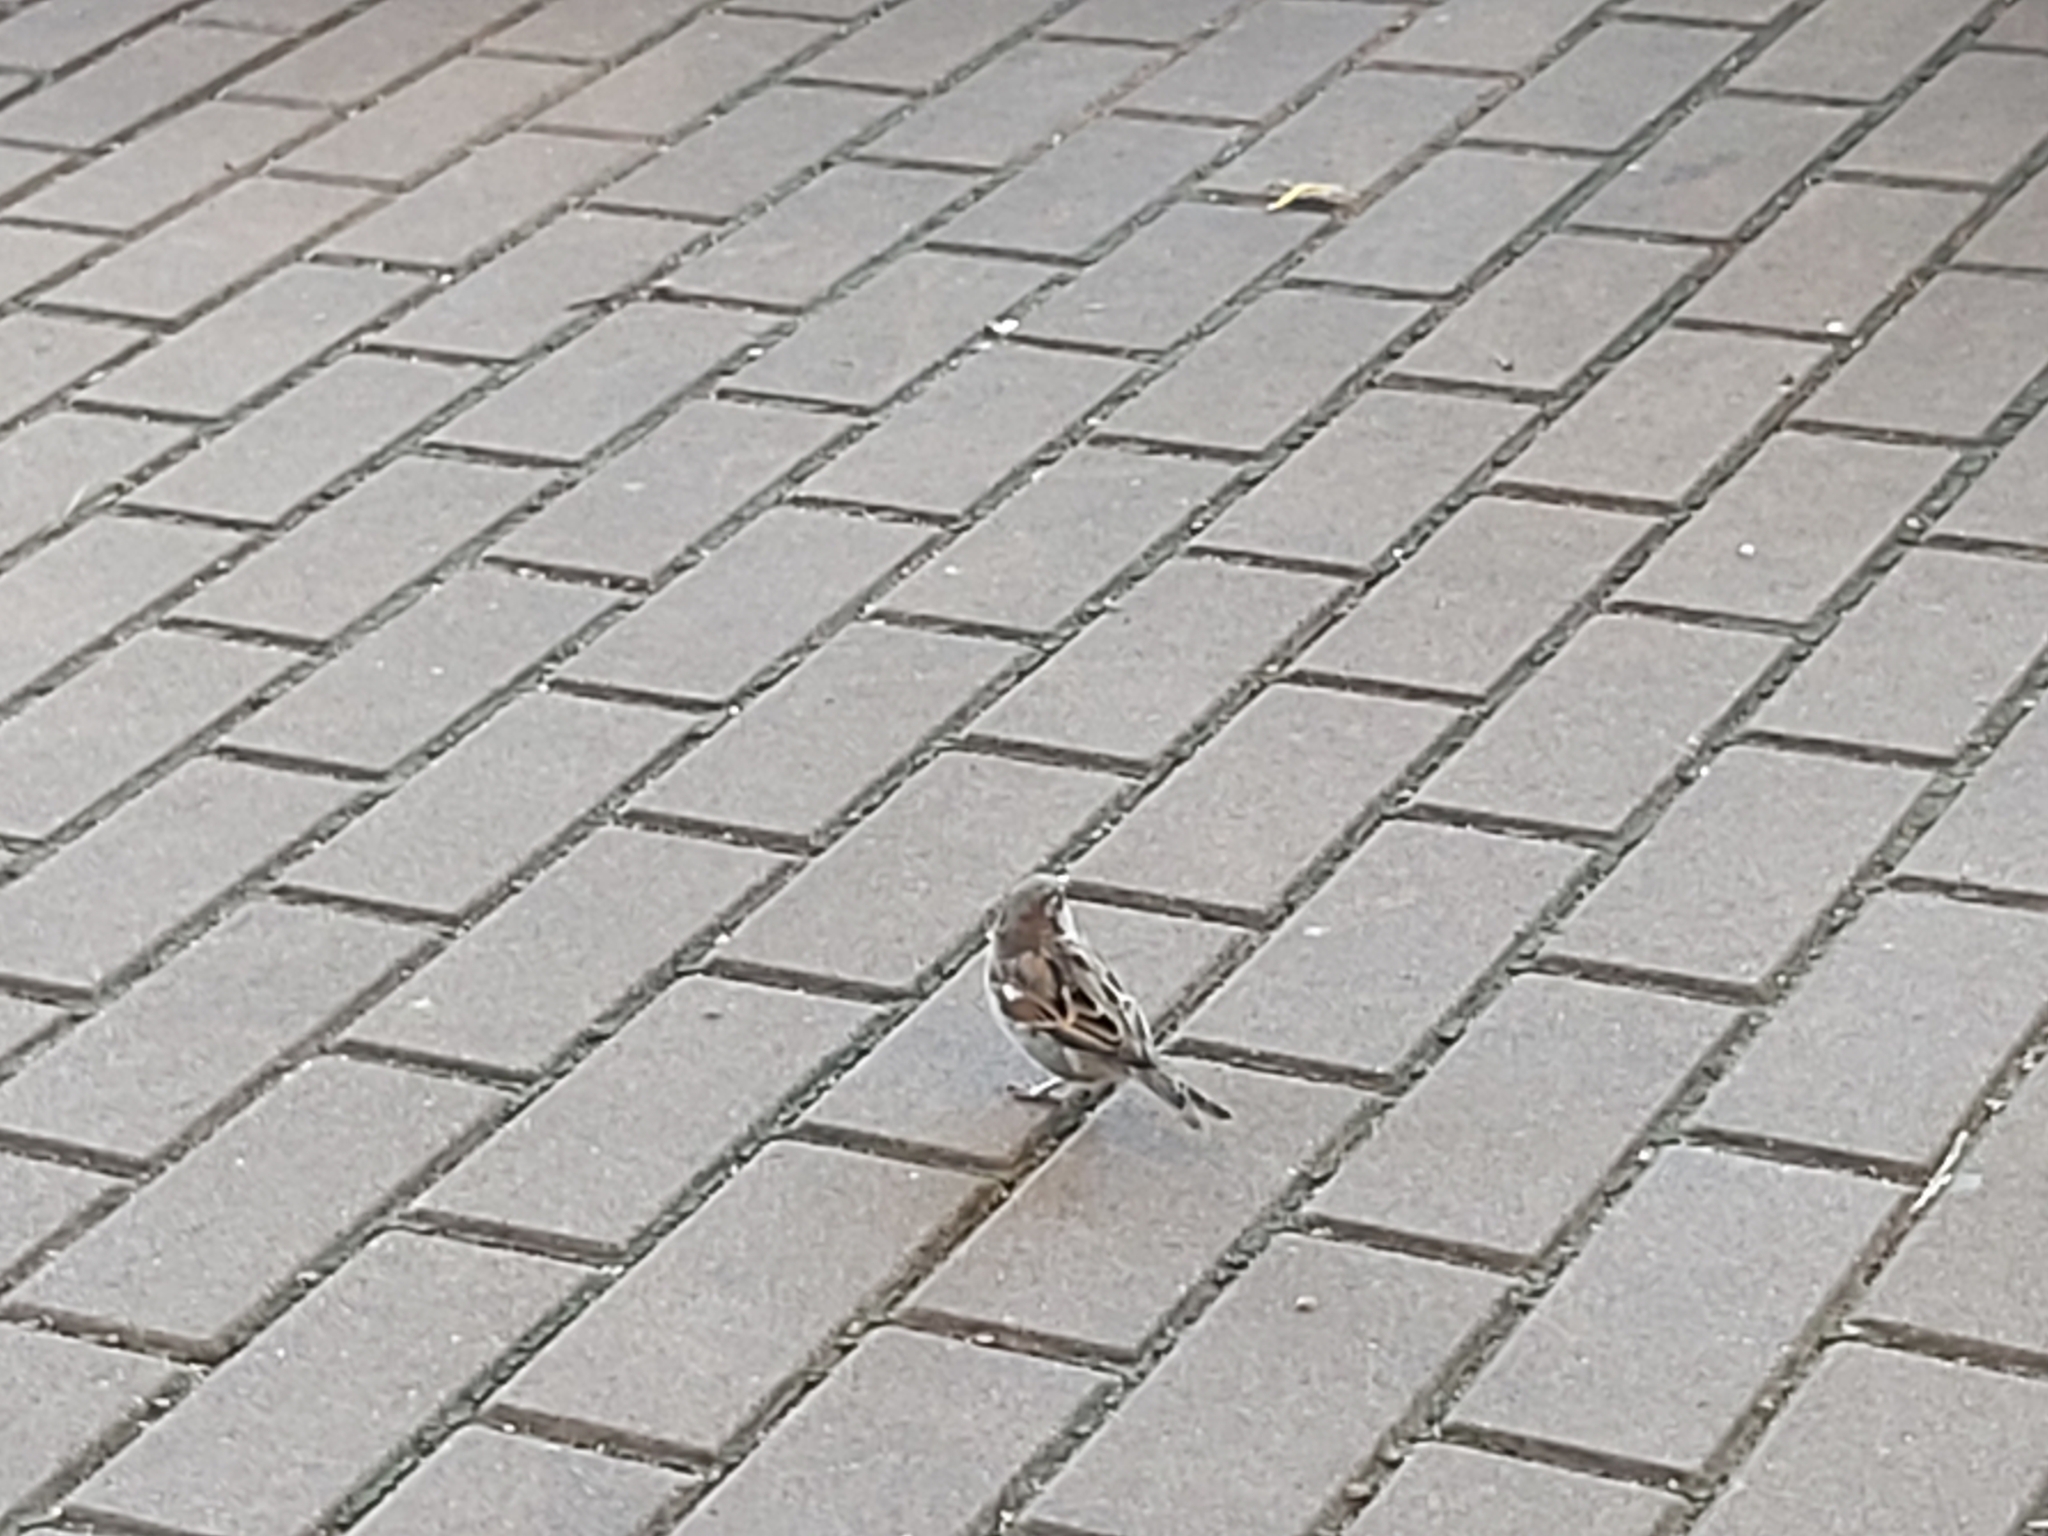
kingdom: Animalia
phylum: Chordata
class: Aves
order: Passeriformes
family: Passeridae
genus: Passer
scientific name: Passer domesticus
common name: House sparrow
